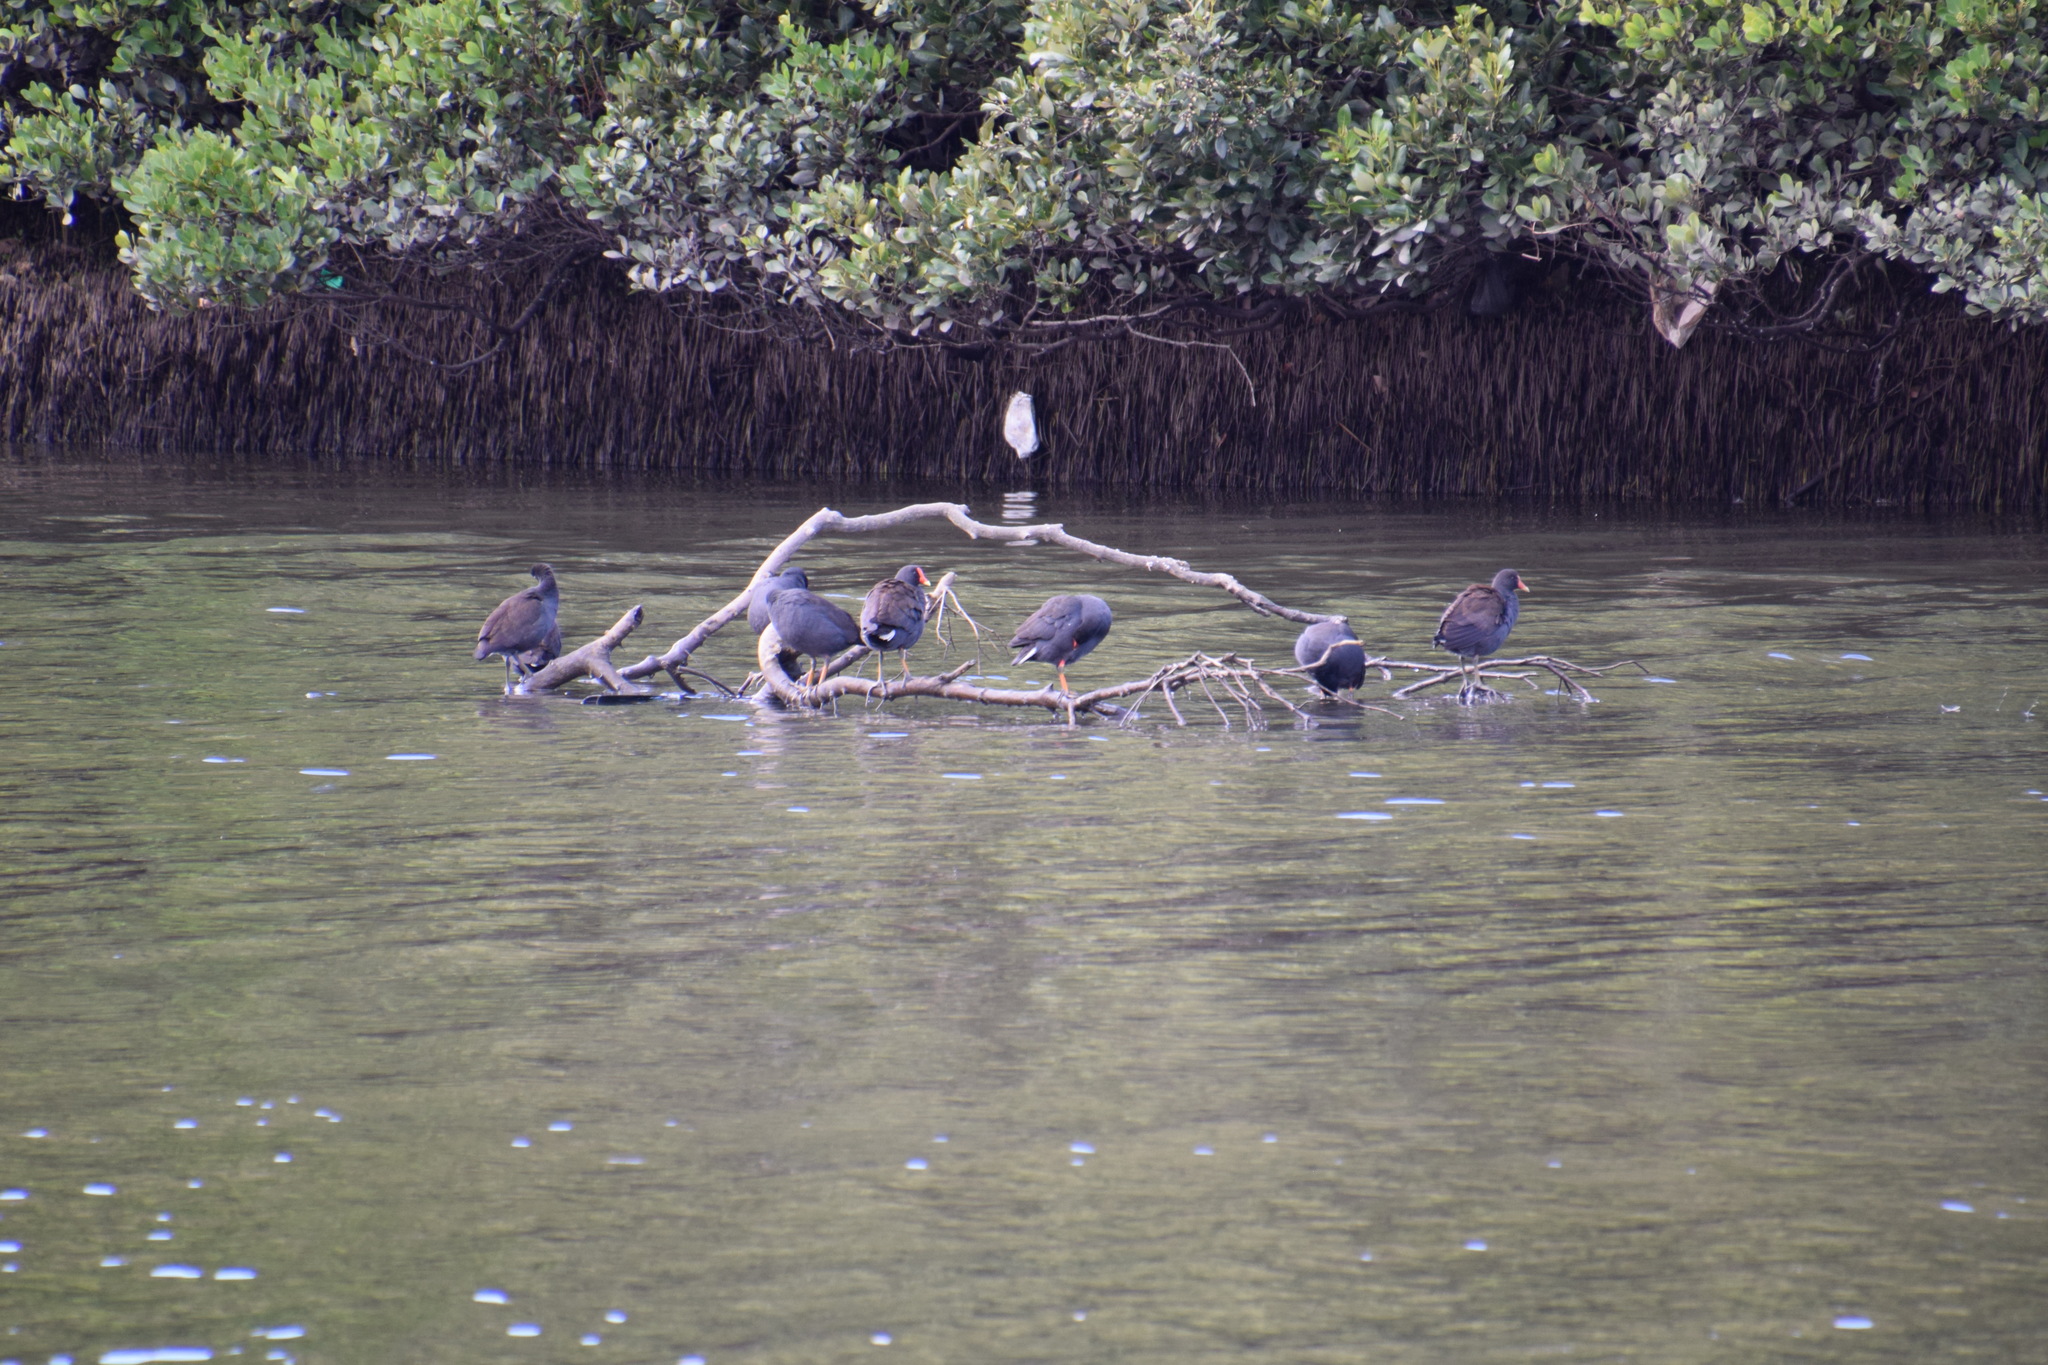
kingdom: Animalia
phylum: Chordata
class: Aves
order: Gruiformes
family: Rallidae
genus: Gallinula
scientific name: Gallinula tenebrosa
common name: Dusky moorhen
